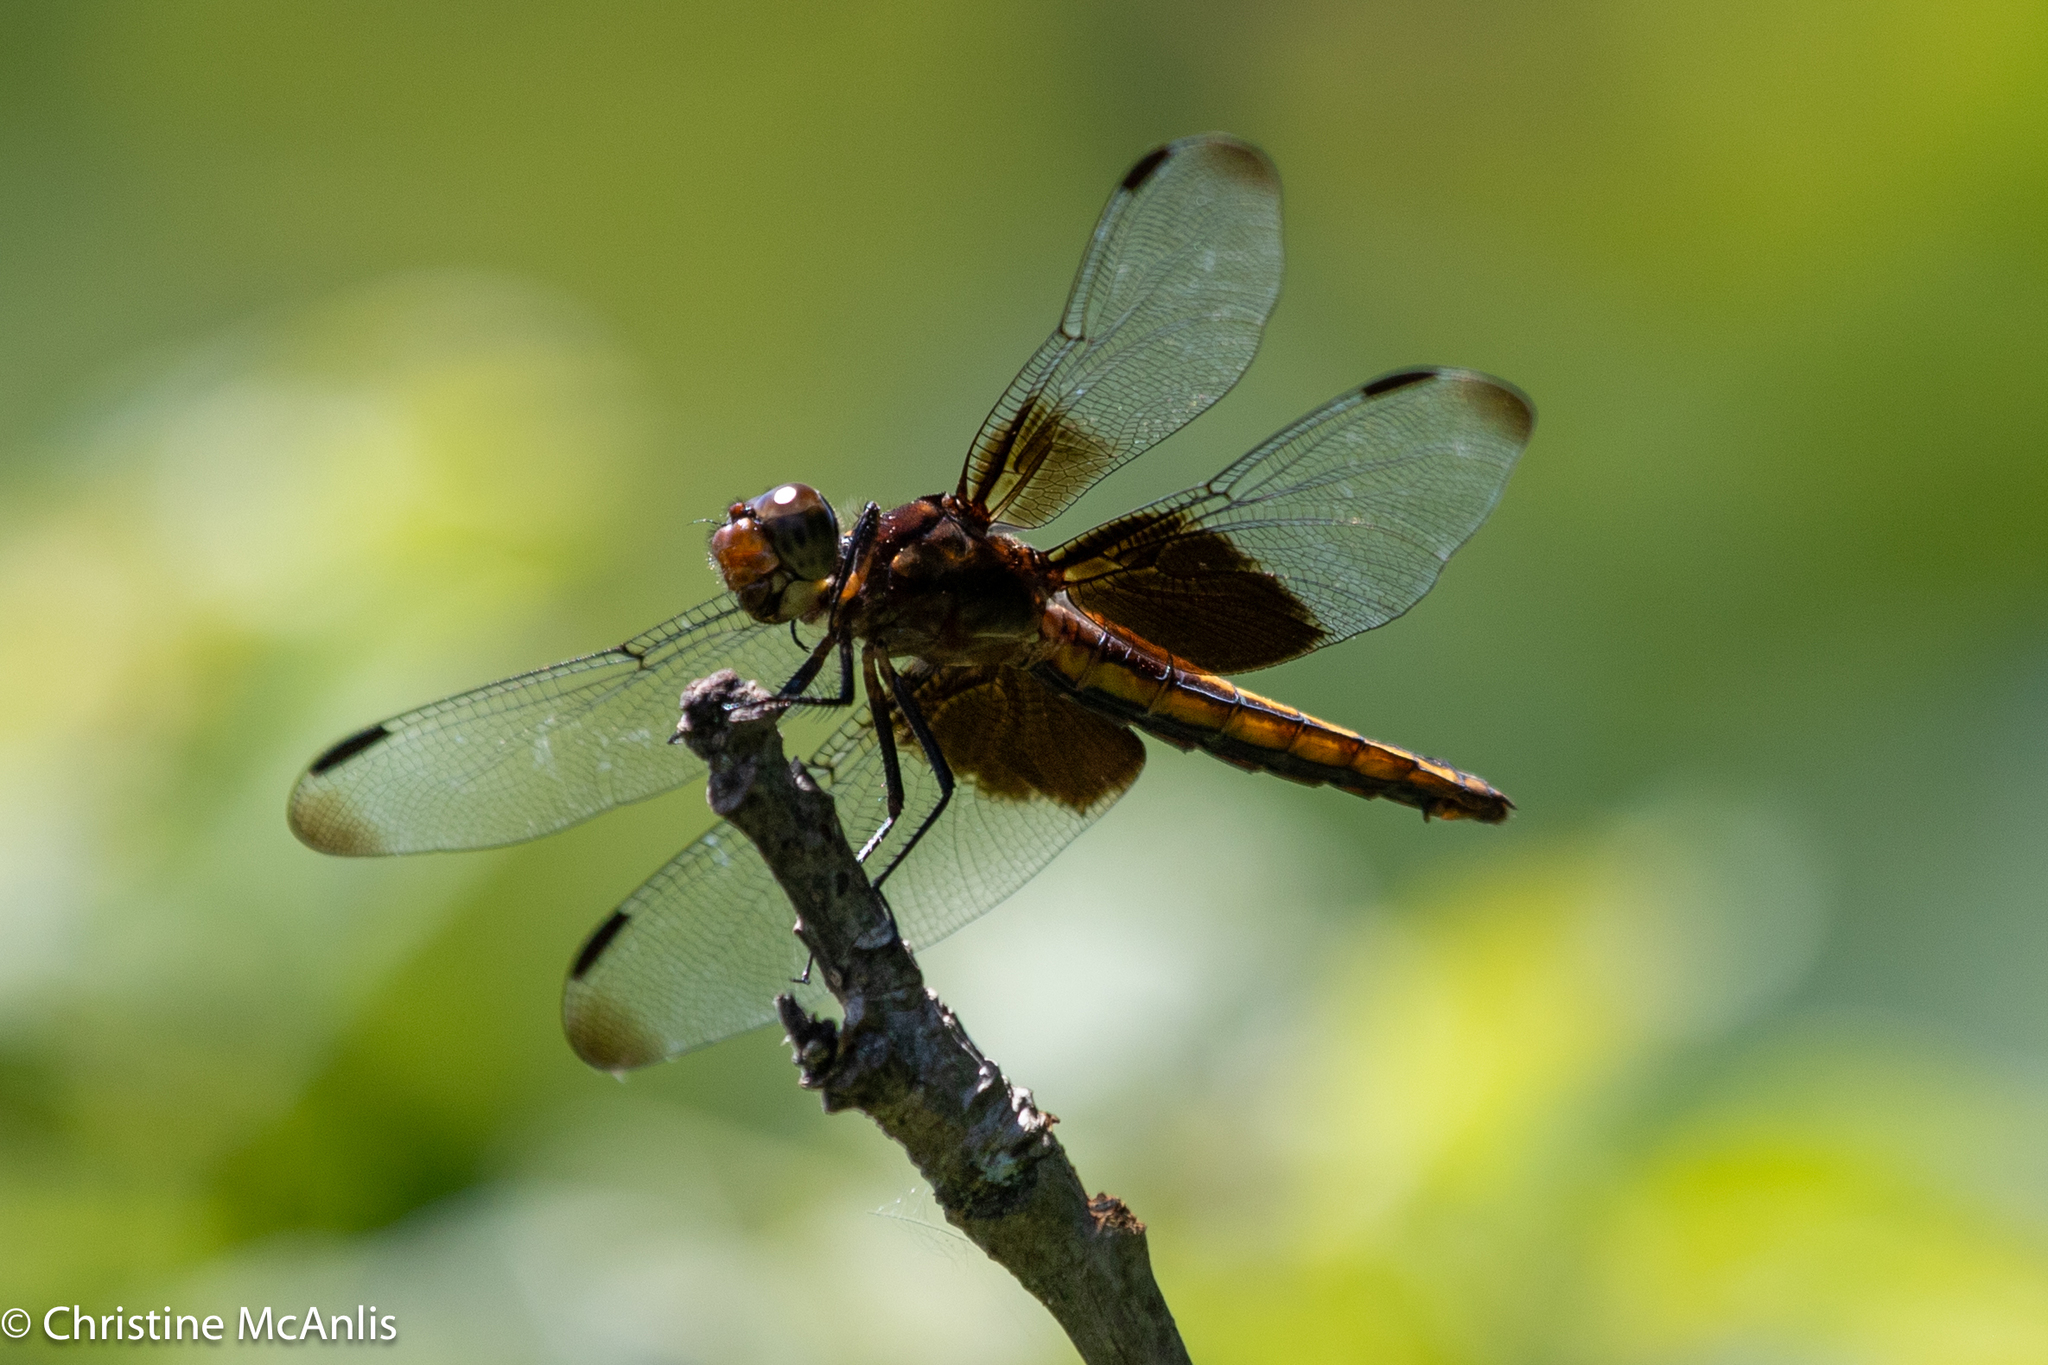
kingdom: Animalia
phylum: Arthropoda
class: Insecta
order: Odonata
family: Libellulidae
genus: Libellula
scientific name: Libellula luctuosa
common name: Widow skimmer
